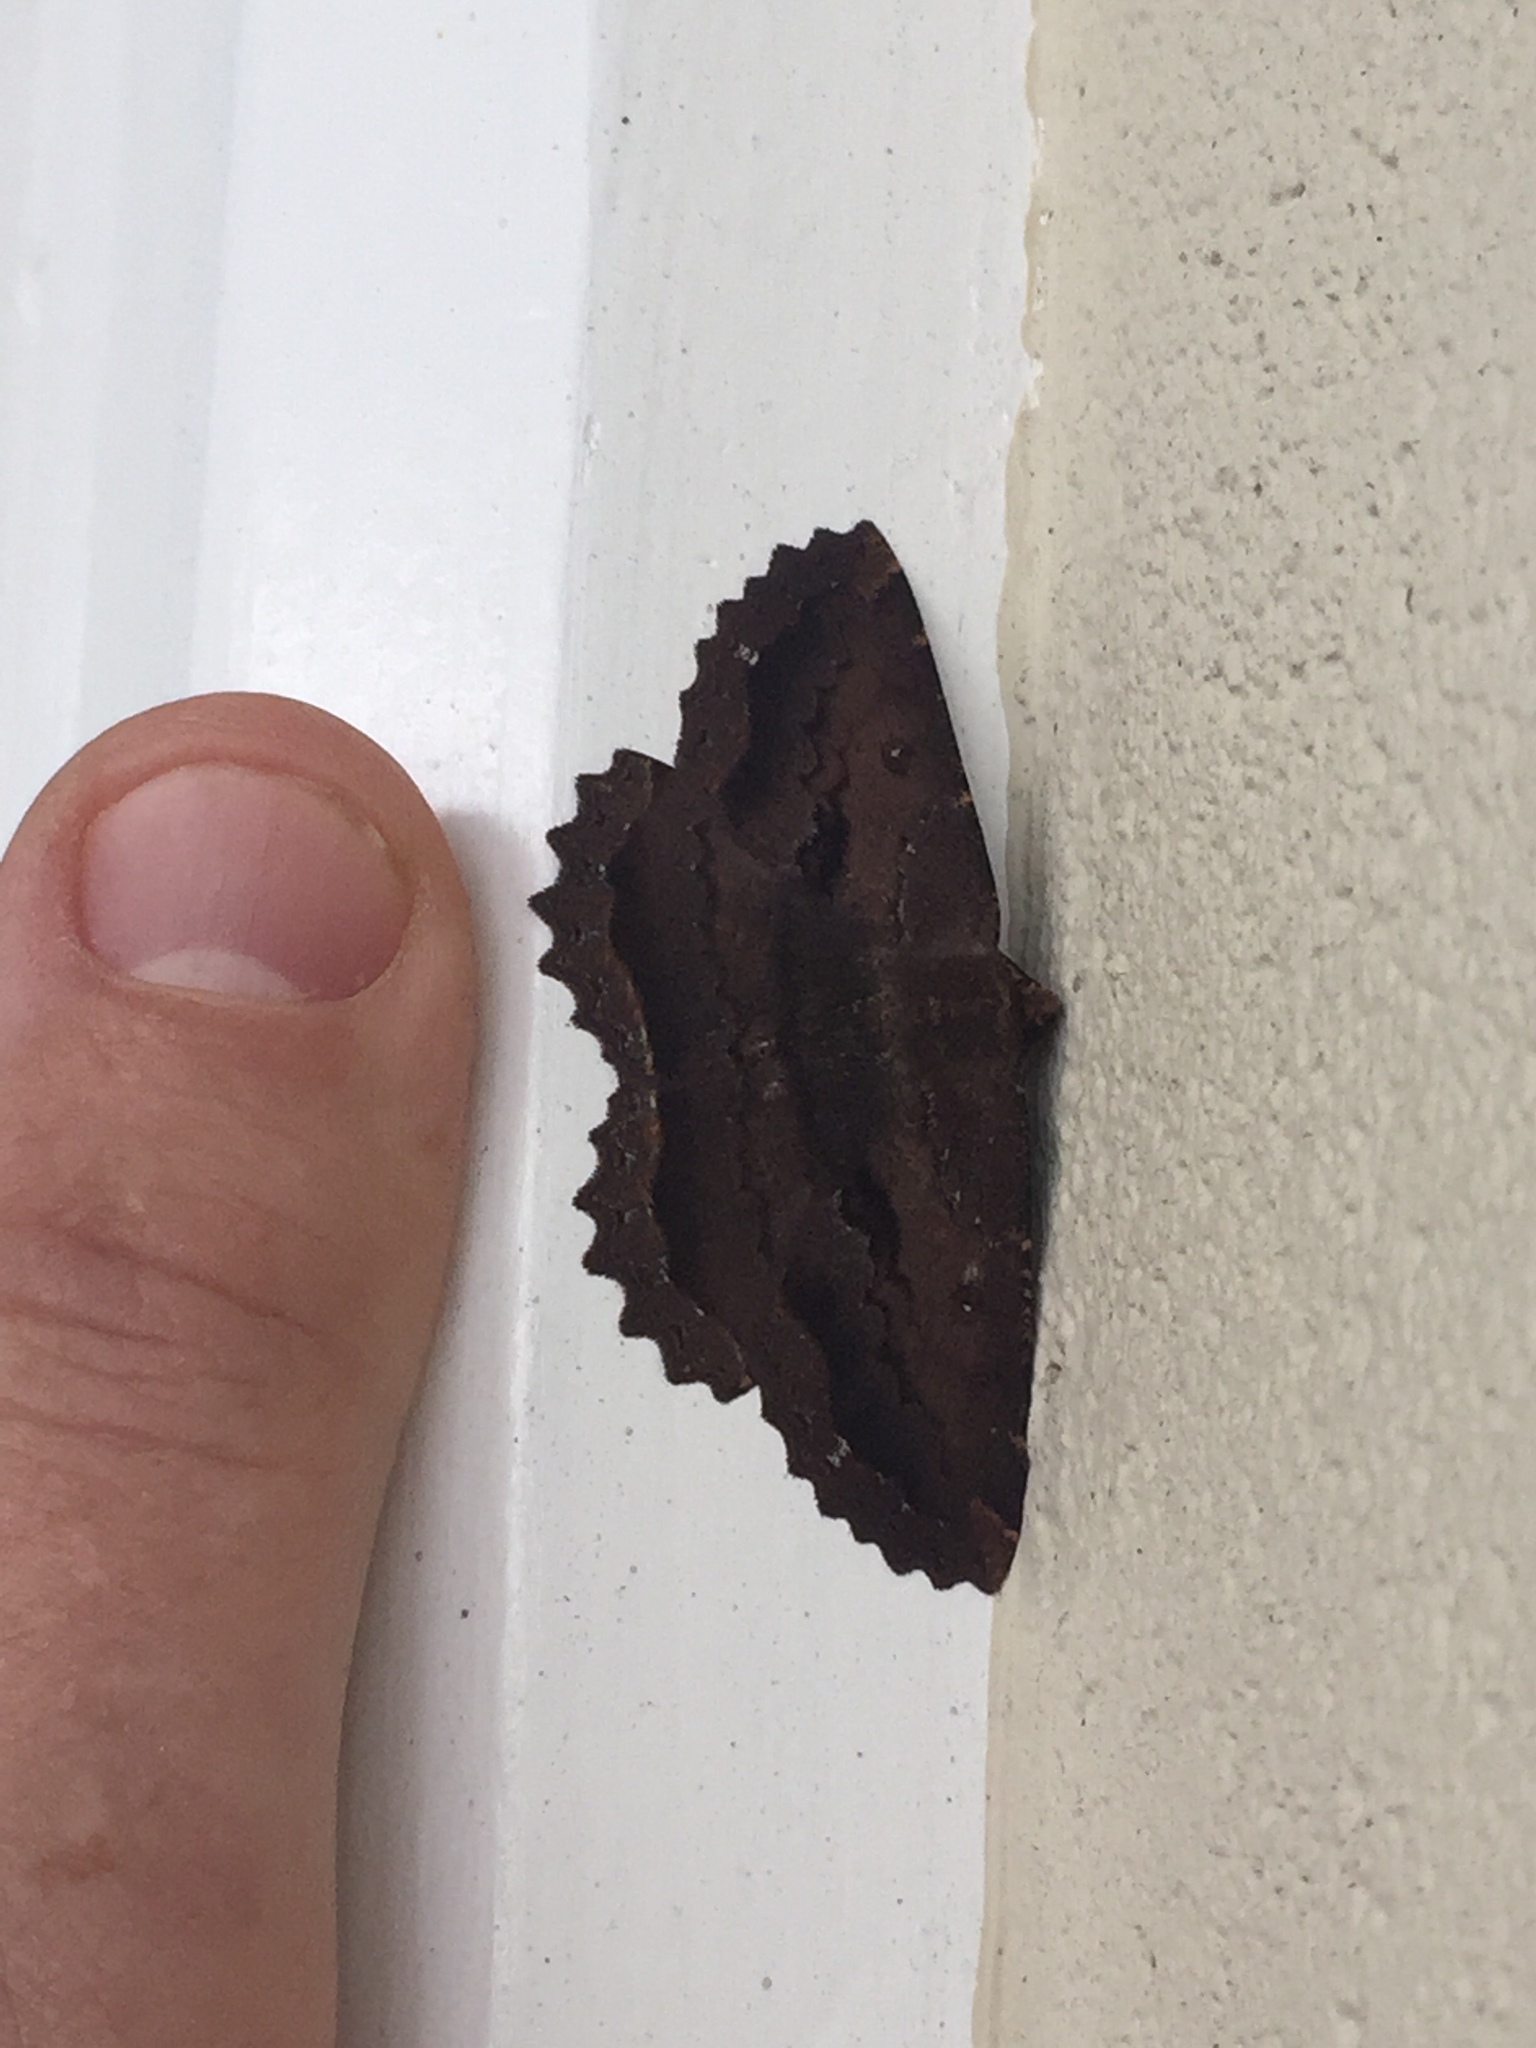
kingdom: Animalia
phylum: Arthropoda
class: Insecta
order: Lepidoptera
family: Geometridae
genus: Gellonia
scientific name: Gellonia dejectaria
